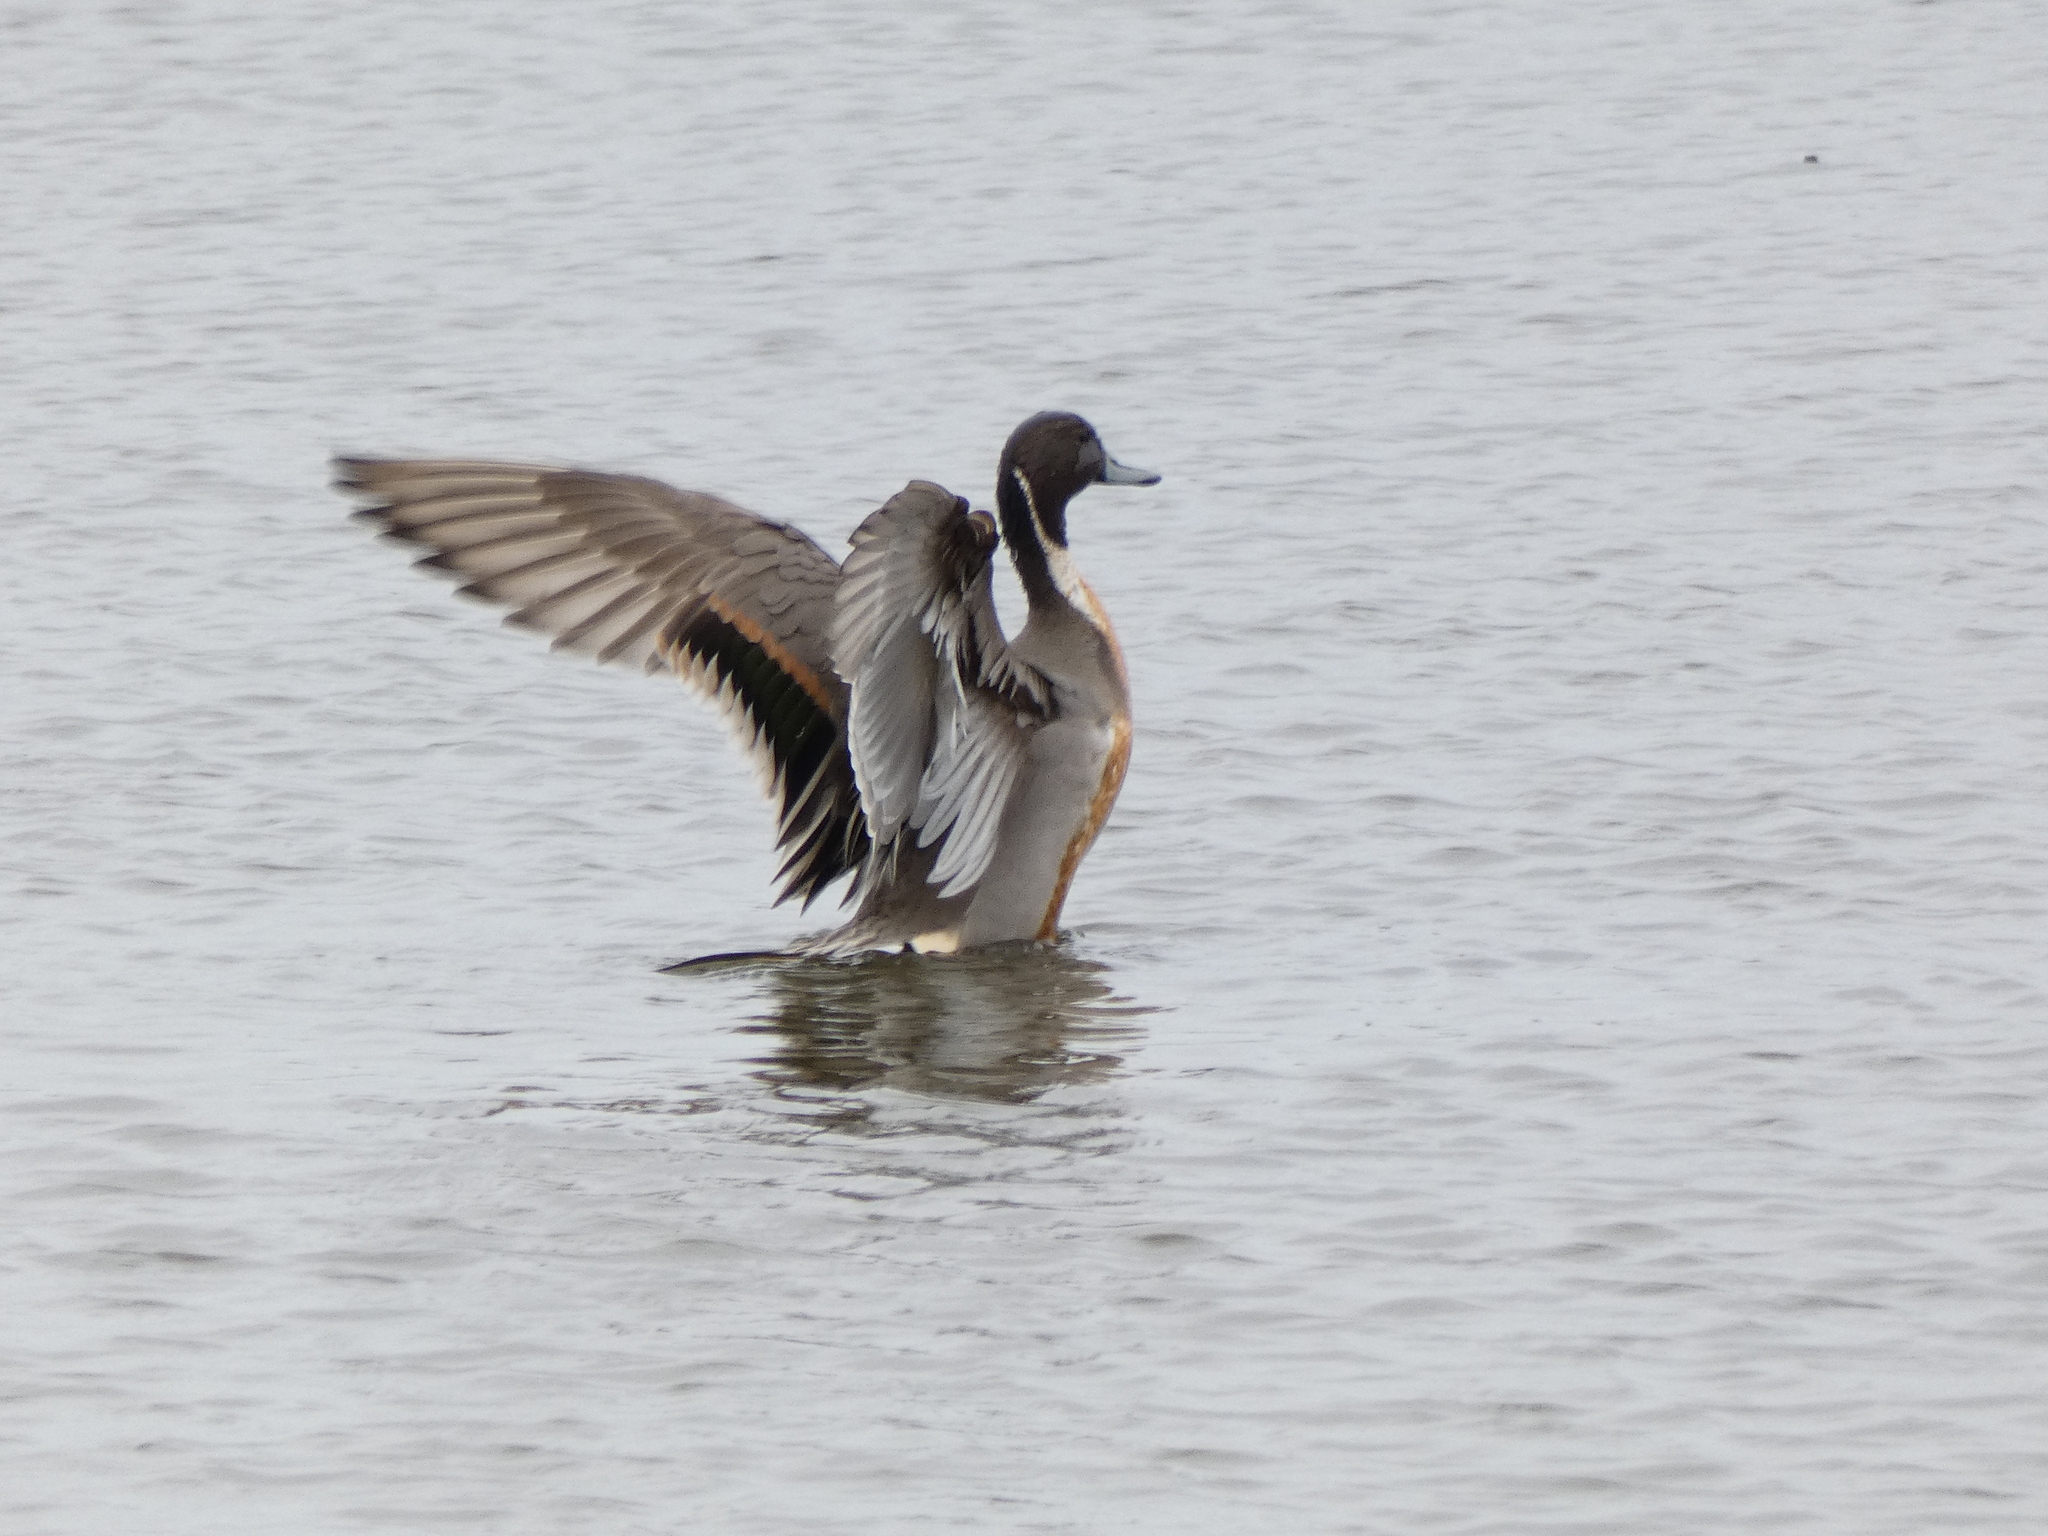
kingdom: Animalia
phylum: Chordata
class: Aves
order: Anseriformes
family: Anatidae
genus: Anas
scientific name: Anas acuta
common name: Northern pintail
